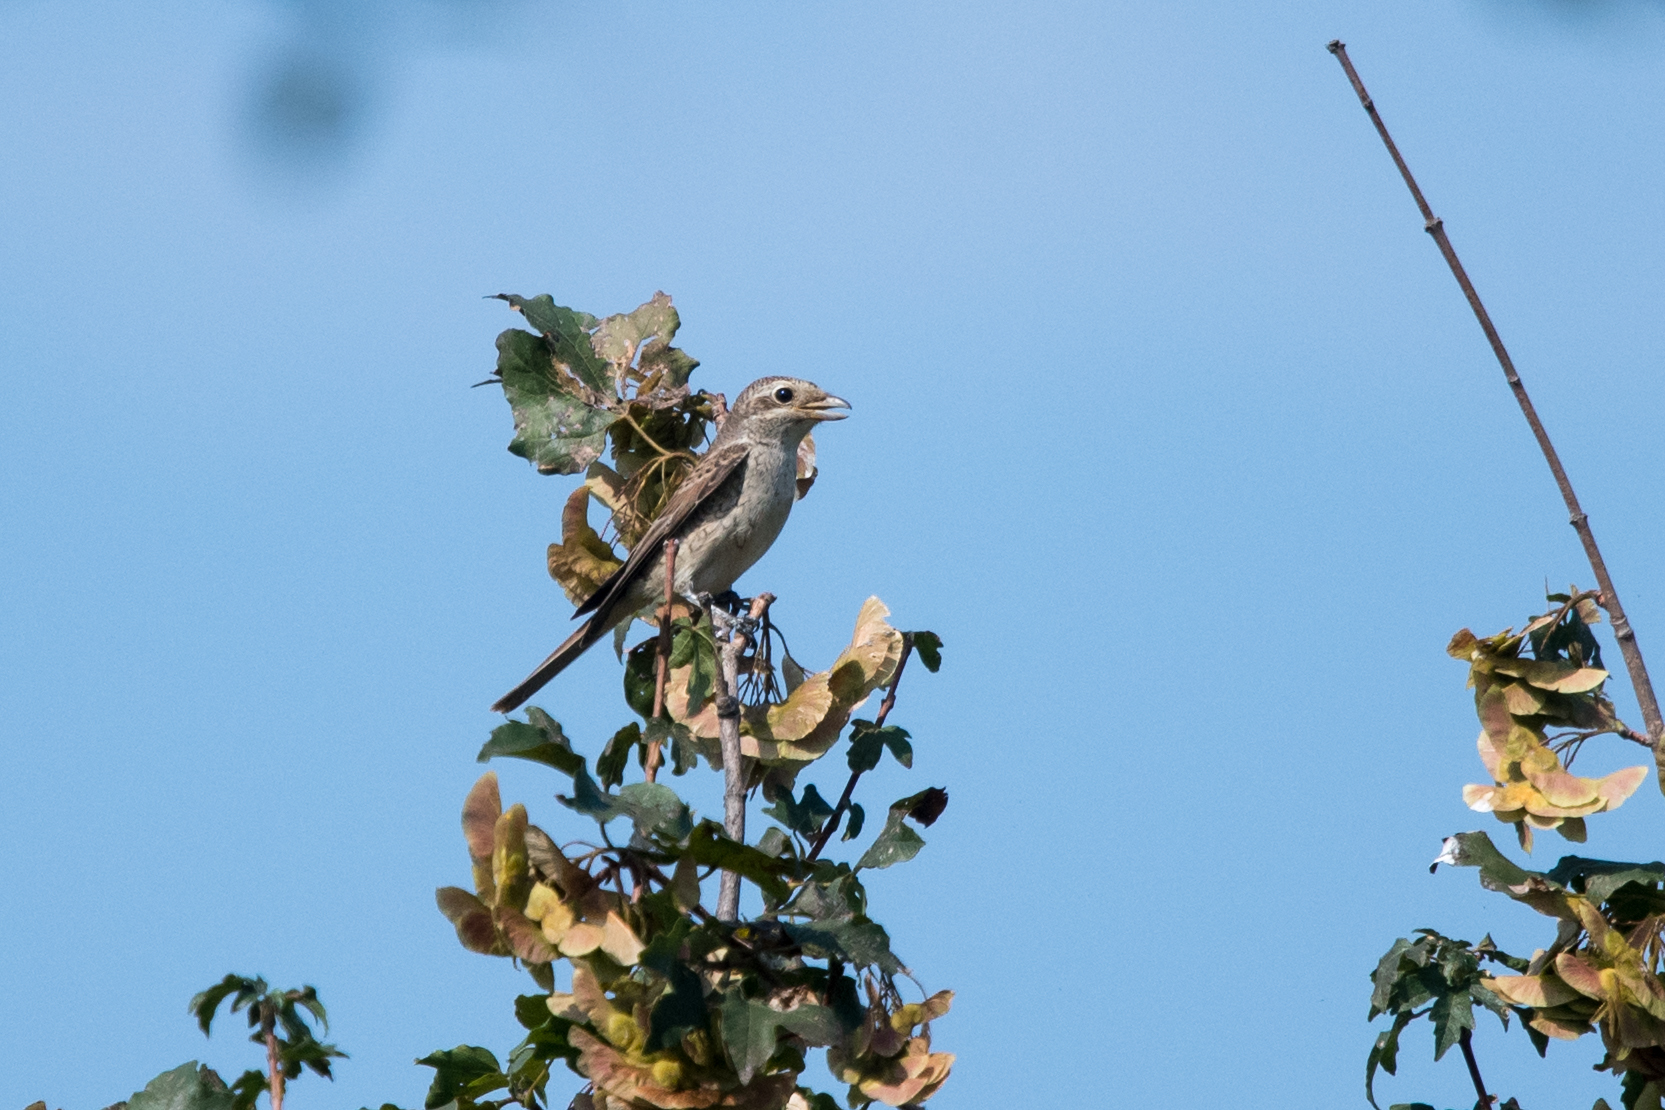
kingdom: Animalia
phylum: Chordata
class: Aves
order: Passeriformes
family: Laniidae
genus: Lanius
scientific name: Lanius collurio
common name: Red-backed shrike
